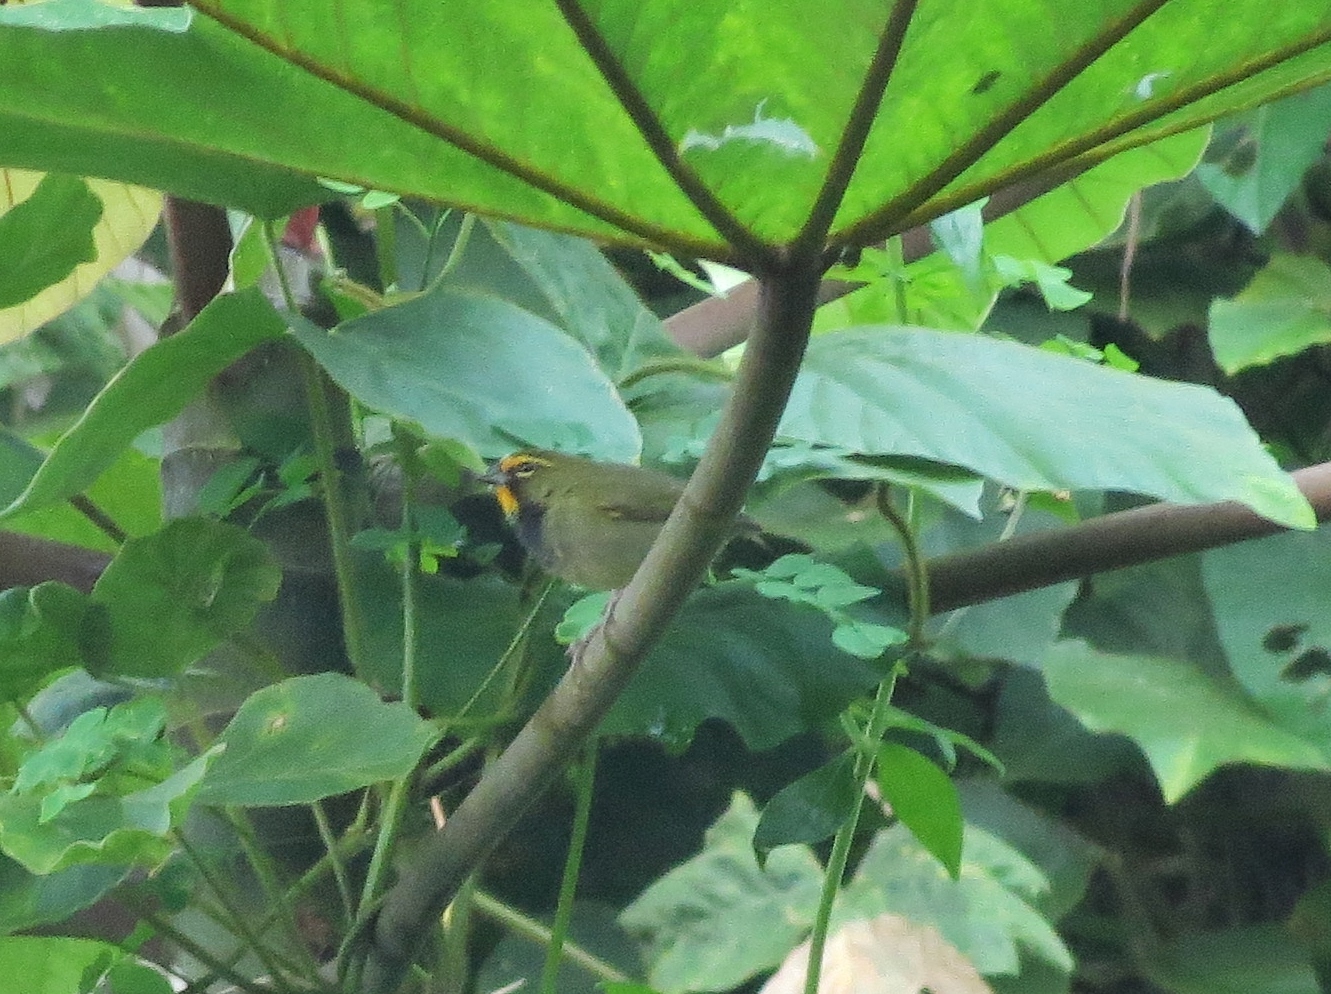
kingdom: Animalia
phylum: Chordata
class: Aves
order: Passeriformes
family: Thraupidae
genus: Tiaris
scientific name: Tiaris olivaceus
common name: Yellow-faced grassquit
